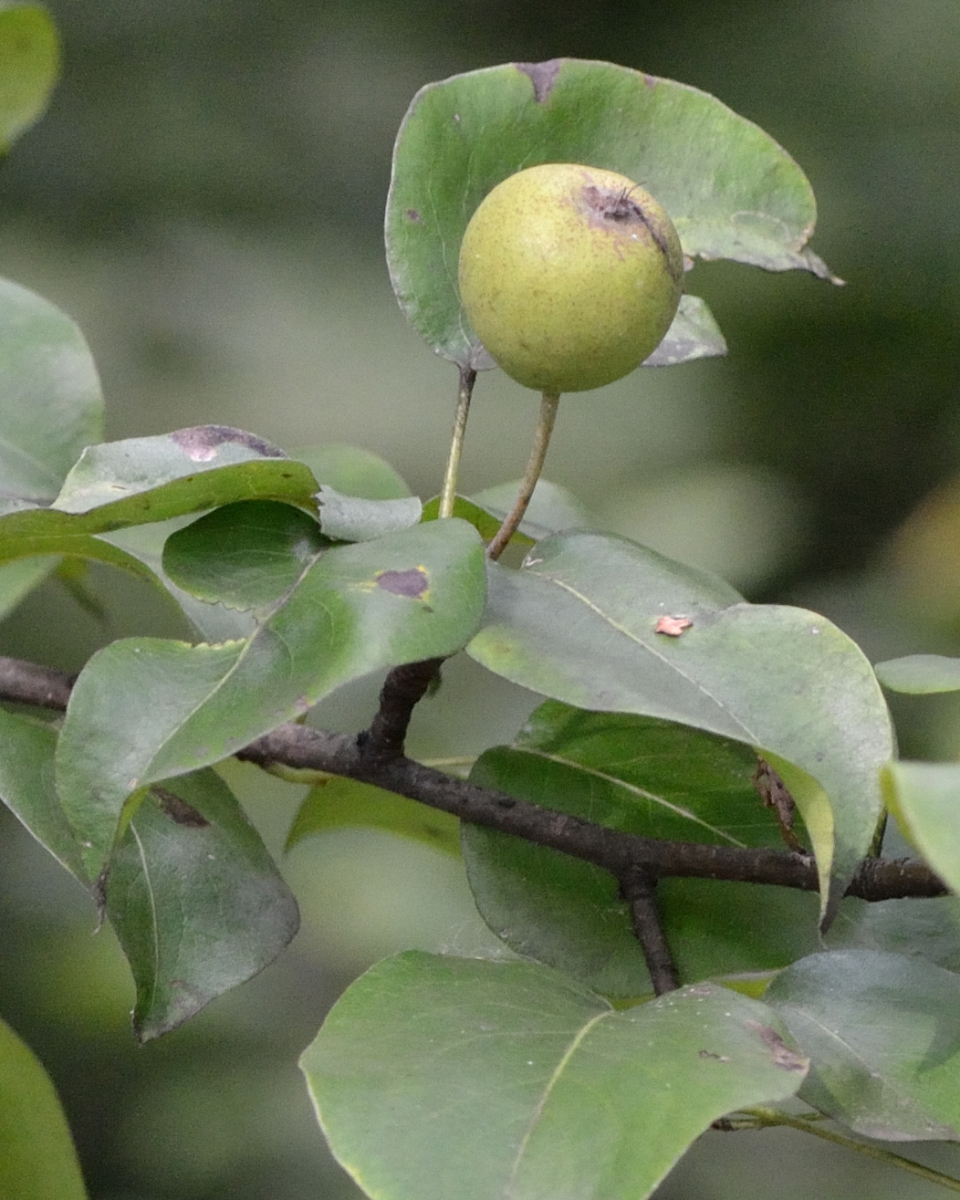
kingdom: Plantae
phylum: Tracheophyta
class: Magnoliopsida
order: Rosales
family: Rosaceae
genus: Pyrus
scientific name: Pyrus communis
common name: Pear
